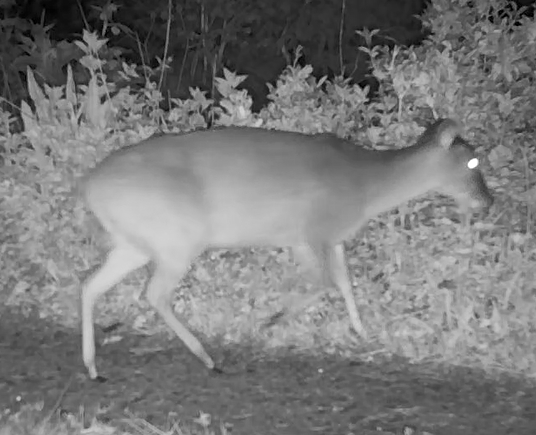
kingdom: Animalia
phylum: Chordata
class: Mammalia
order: Artiodactyla
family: Cervidae
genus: Muntiacus
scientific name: Muntiacus reevesi
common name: Reeves' muntjac
